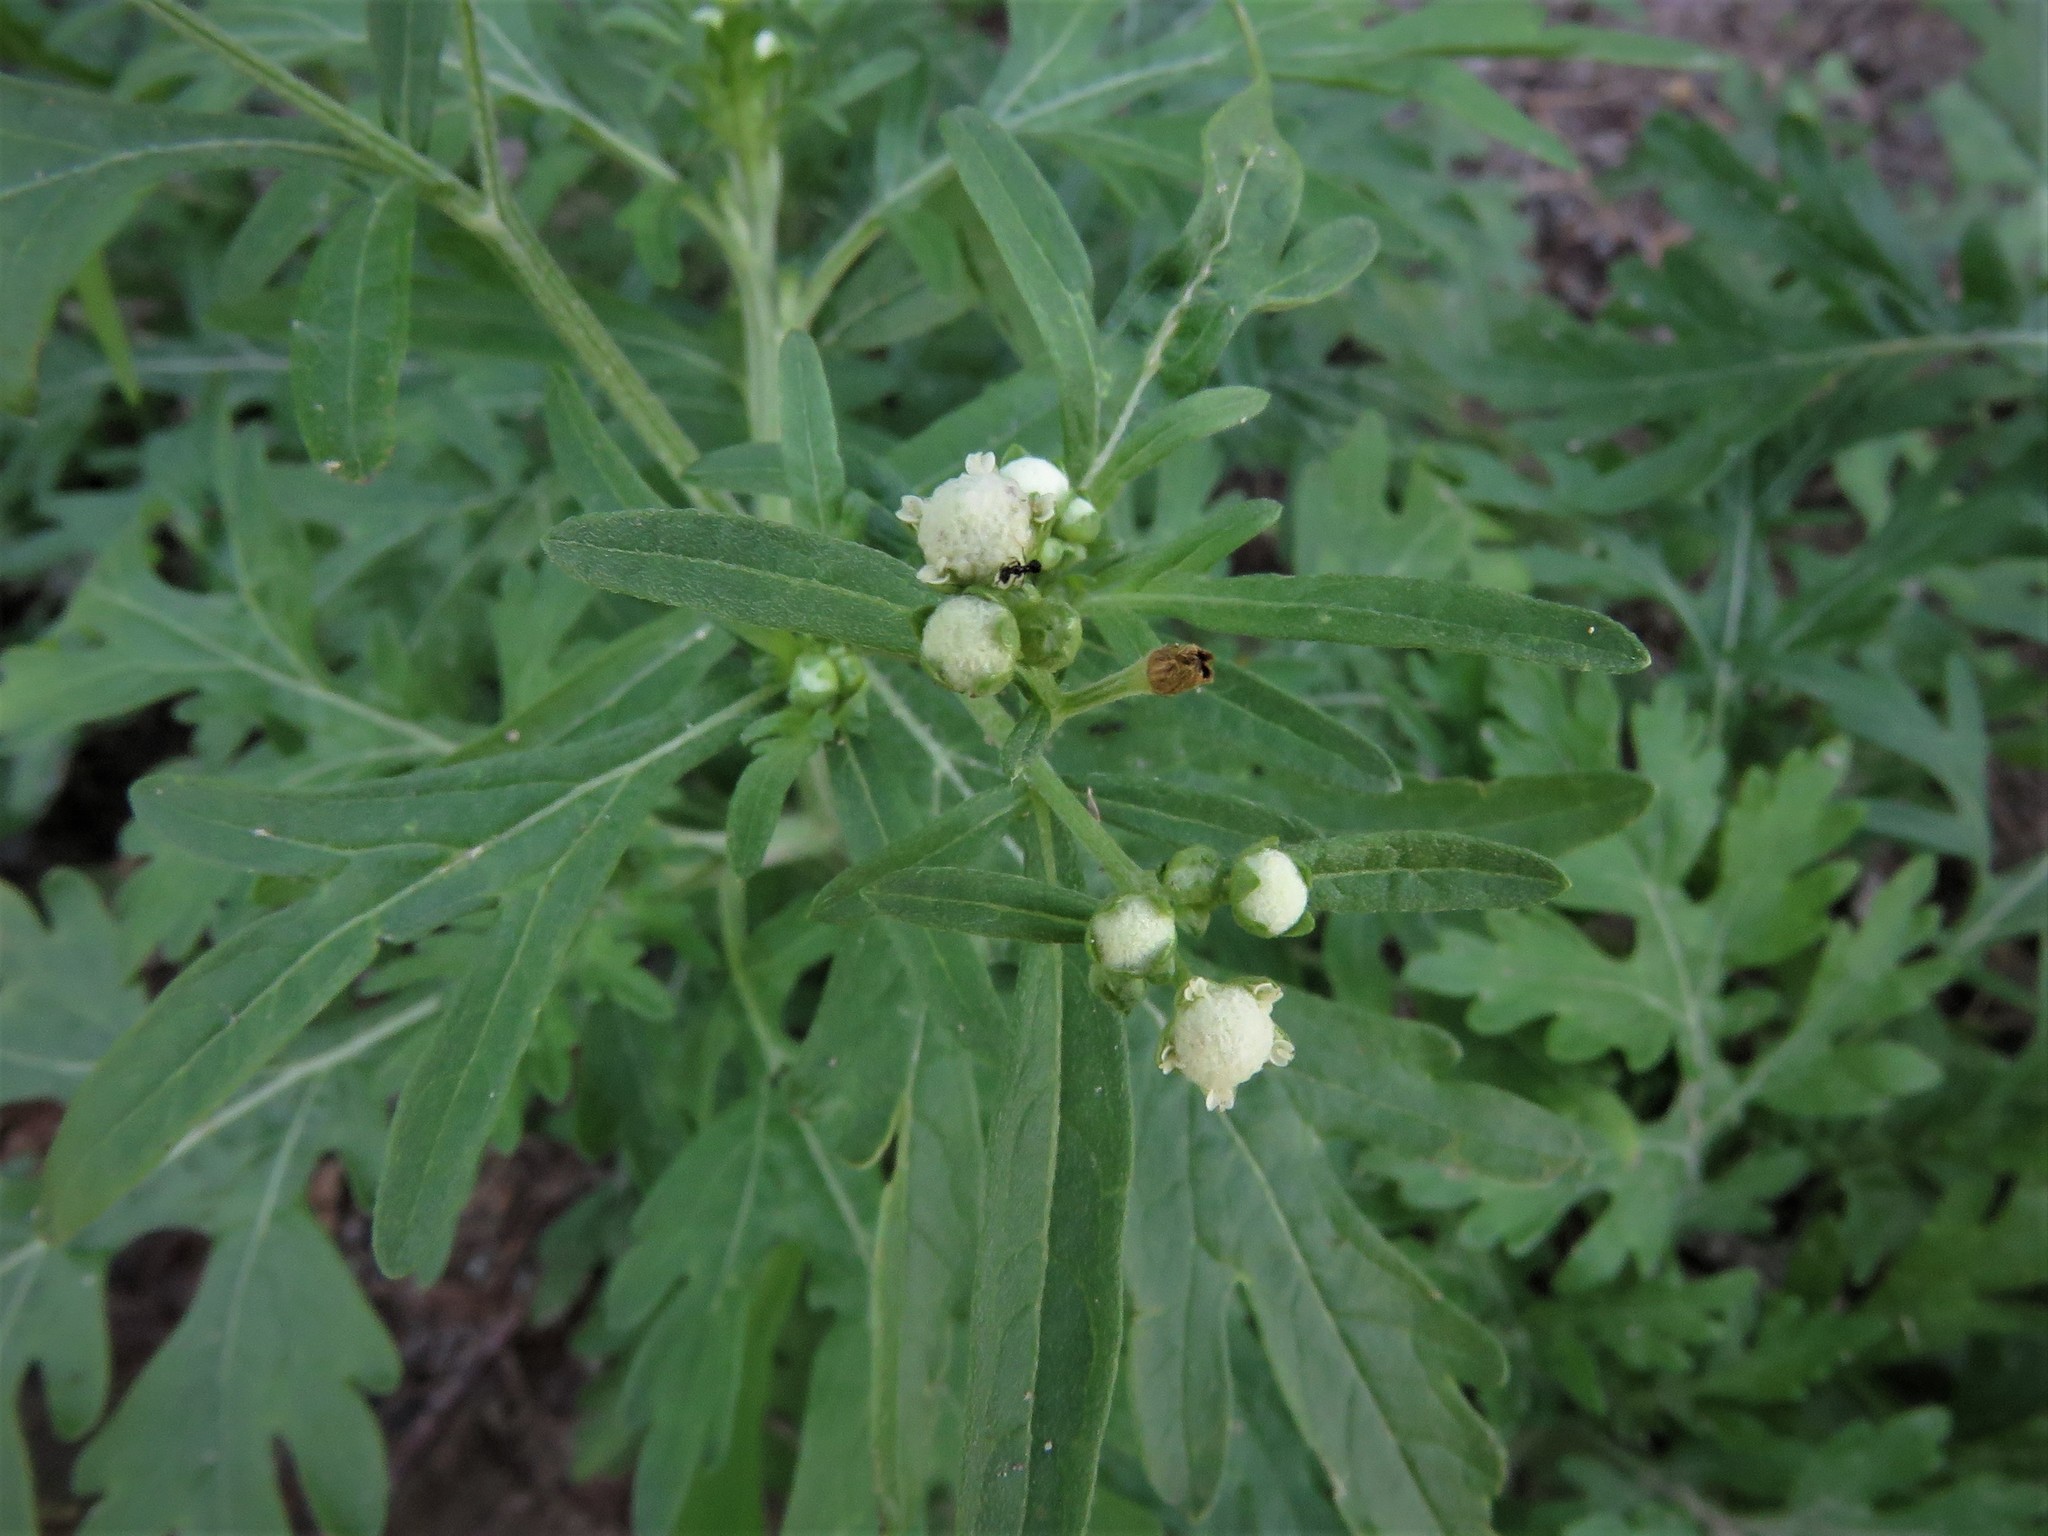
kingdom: Plantae
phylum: Tracheophyta
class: Magnoliopsida
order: Asterales
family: Asteraceae
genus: Parthenium
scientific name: Parthenium hysterophorus
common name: Santa maria feverfew
